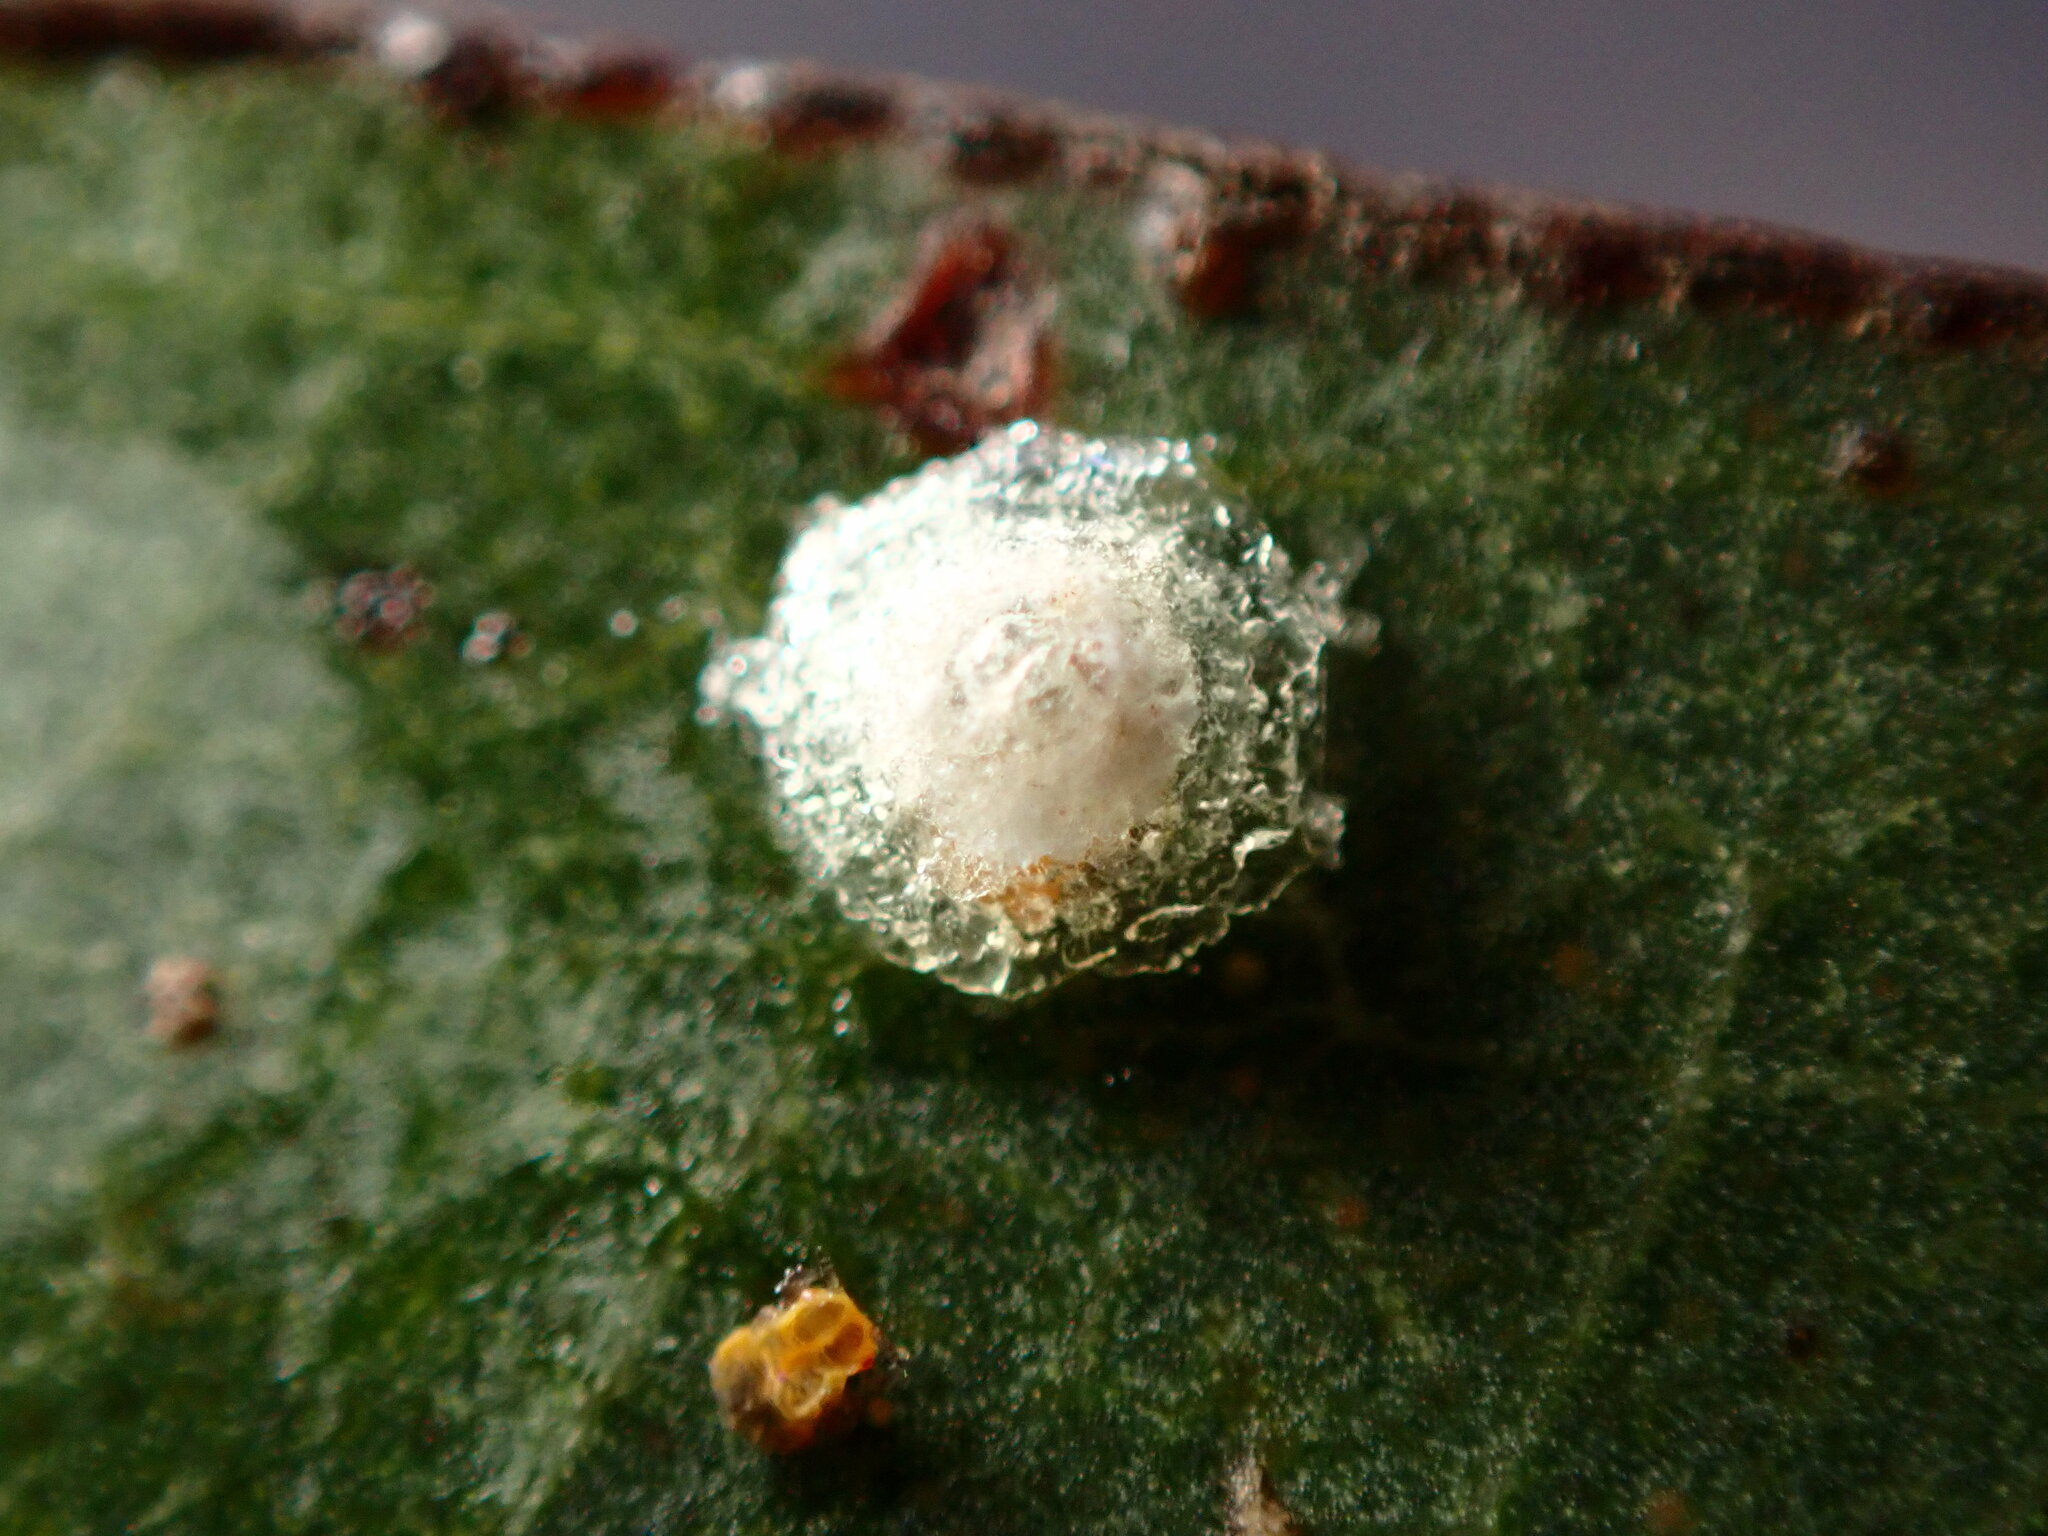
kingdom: Animalia
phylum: Arthropoda
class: Insecta
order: Hemiptera
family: Aphalaridae
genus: Glycaspis
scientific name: Glycaspis brimblecombei
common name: Red gum lerp psyllid
